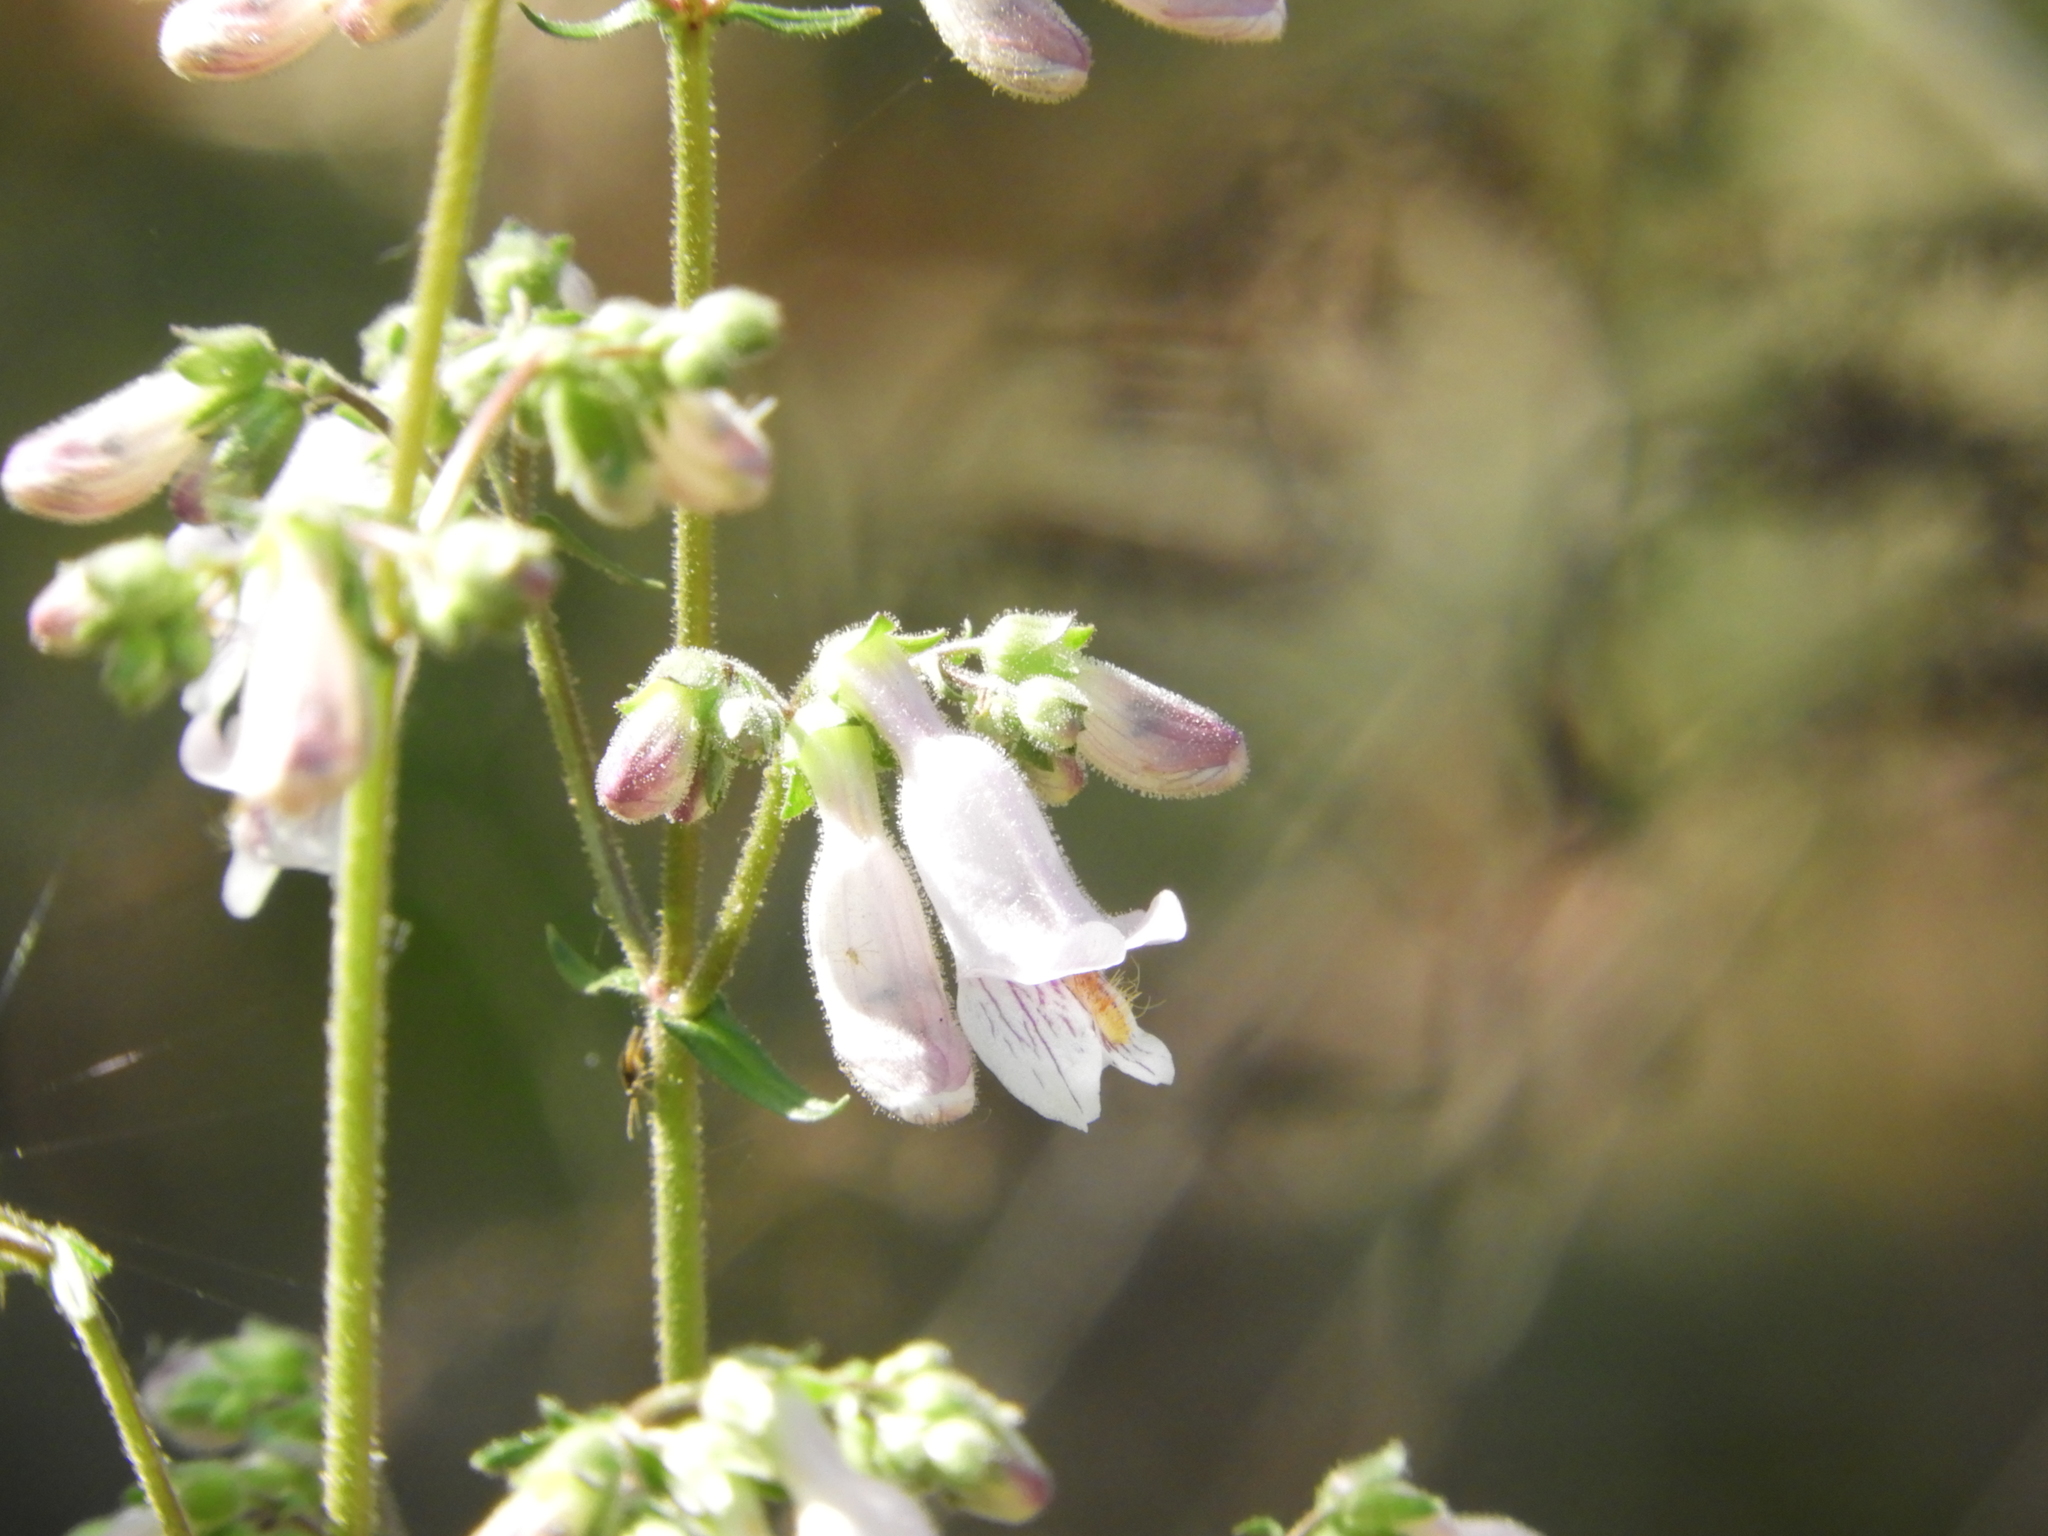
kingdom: Plantae
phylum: Tracheophyta
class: Magnoliopsida
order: Lamiales
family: Plantaginaceae
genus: Penstemon
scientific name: Penstemon laxiflorus
